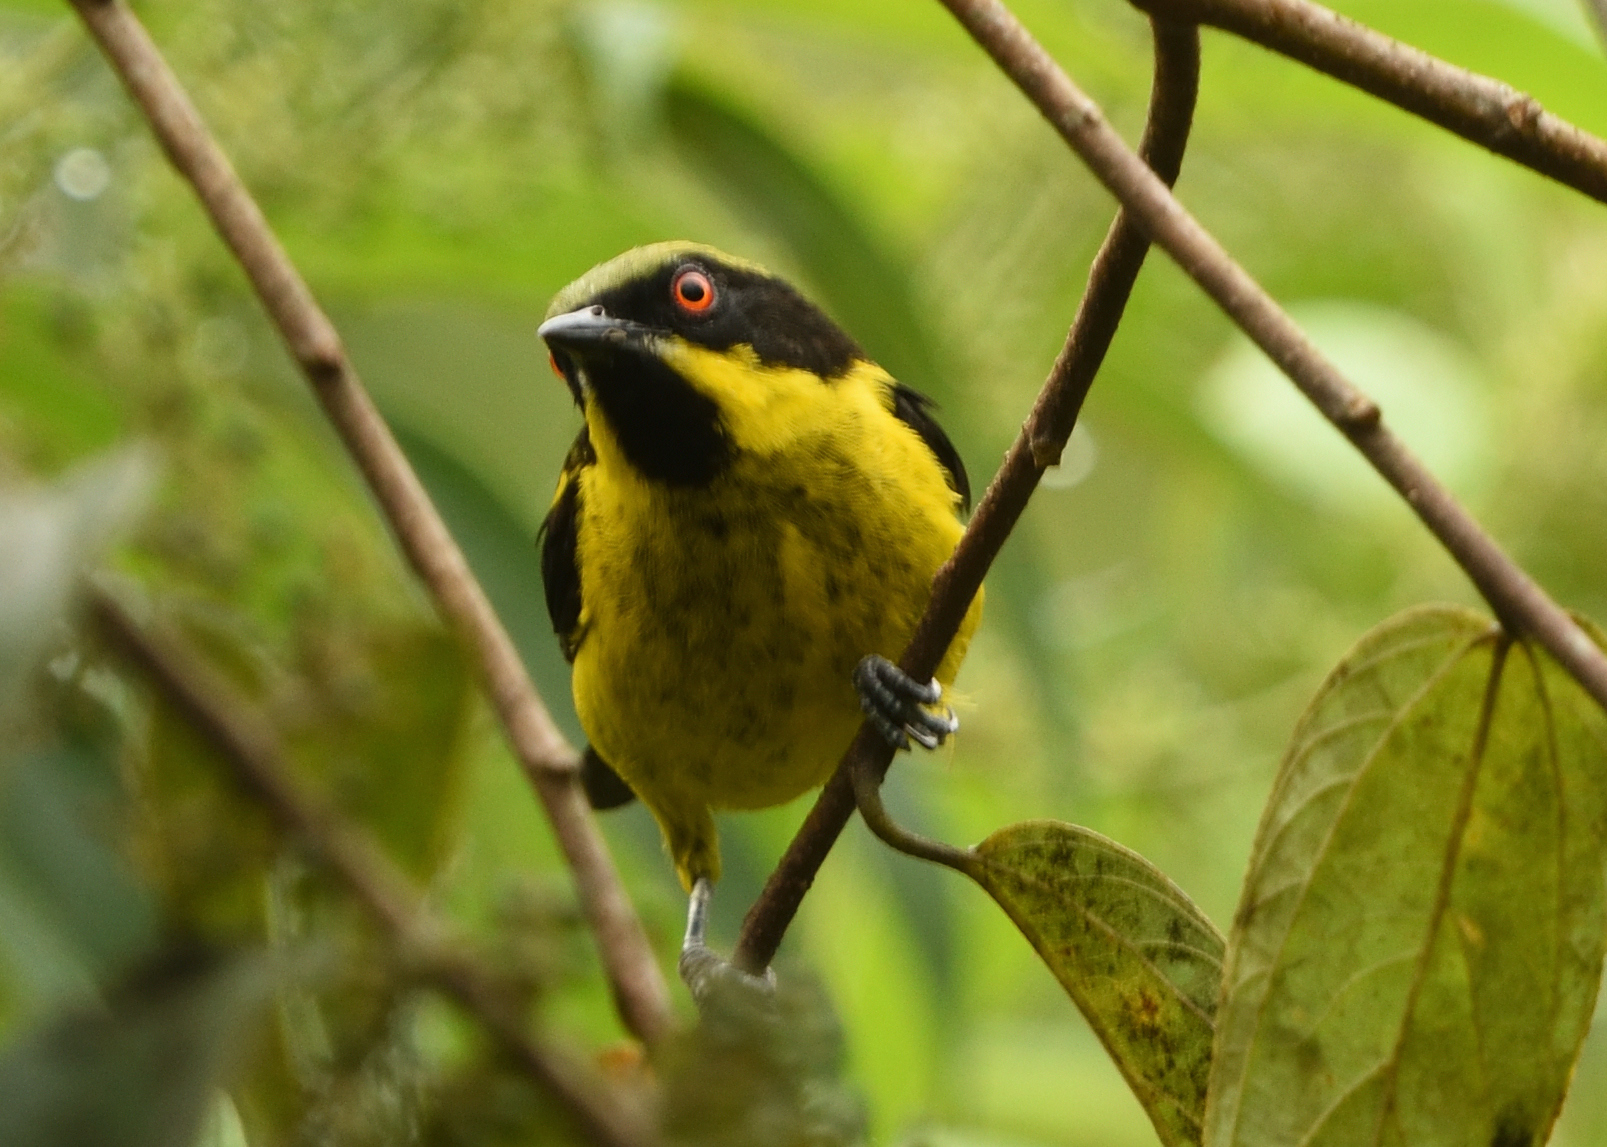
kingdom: Animalia
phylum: Chordata
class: Aves
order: Passeriformes
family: Thraupidae
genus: Dacnis
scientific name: Dacnis flaviventer
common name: Yellow-bellied dacnis
